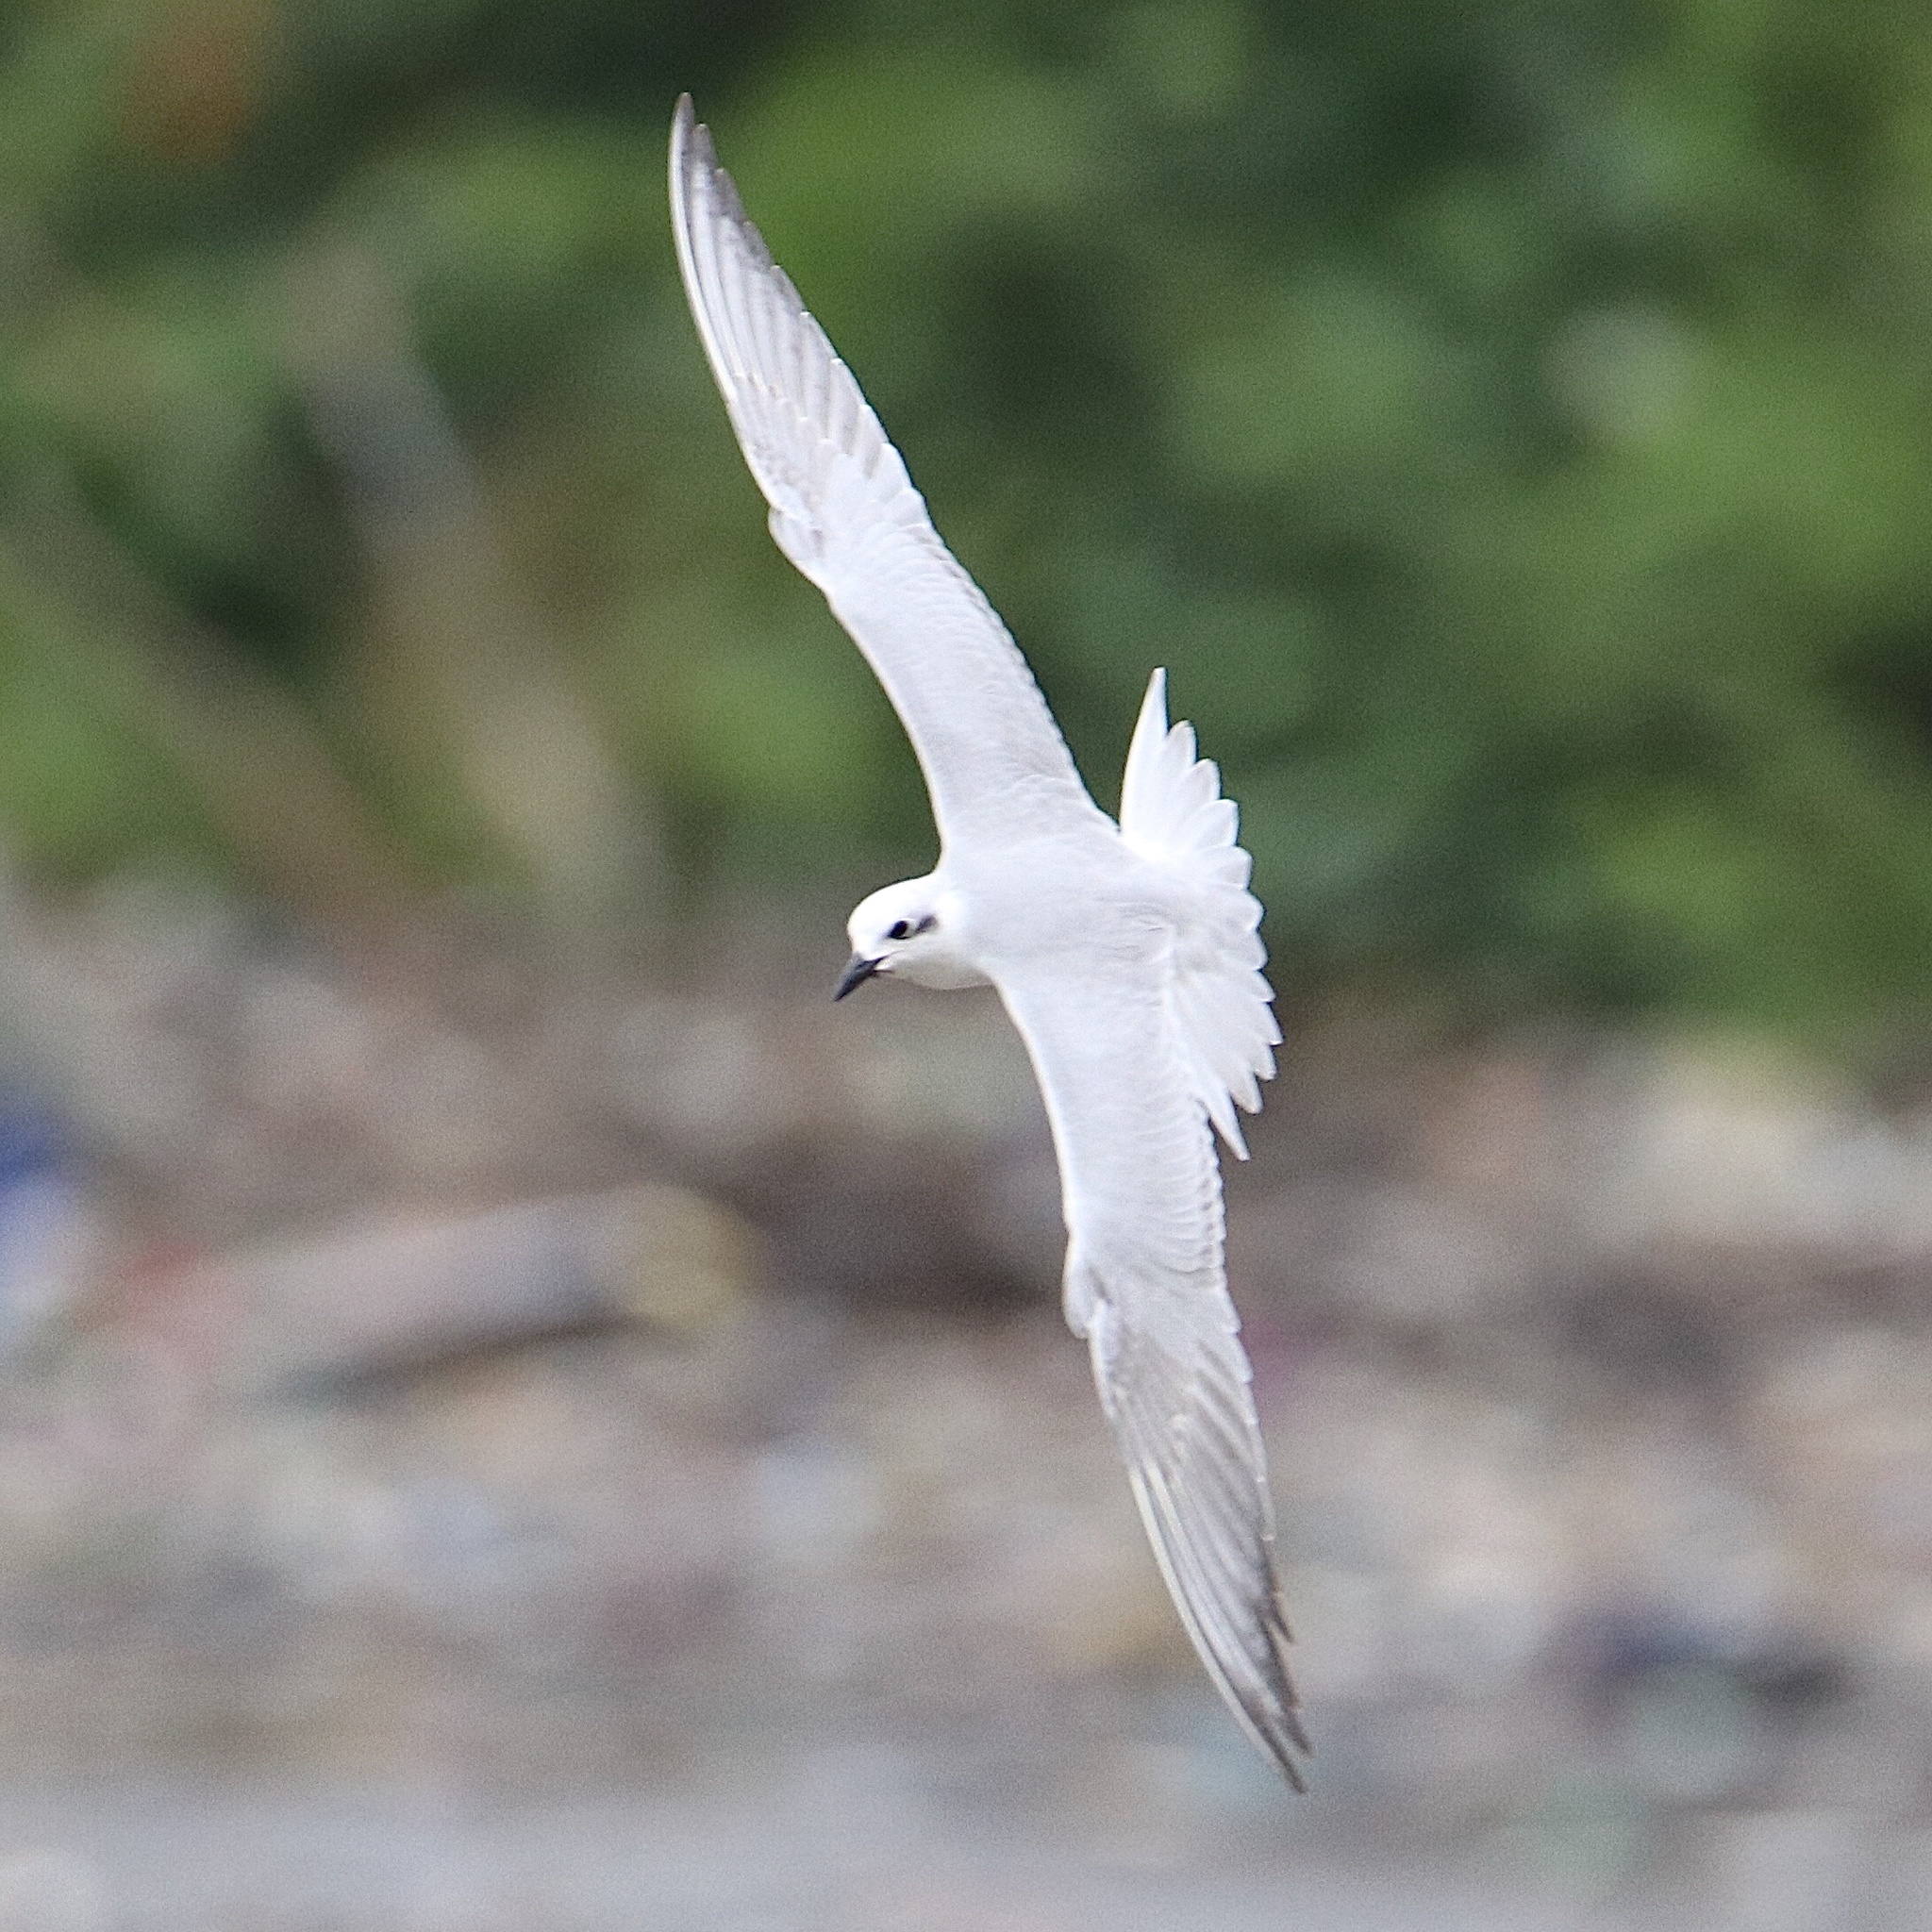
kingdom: Animalia
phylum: Chordata
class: Aves
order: Charadriiformes
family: Laridae
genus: Gelochelidon
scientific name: Gelochelidon nilotica
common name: Gull-billed tern
